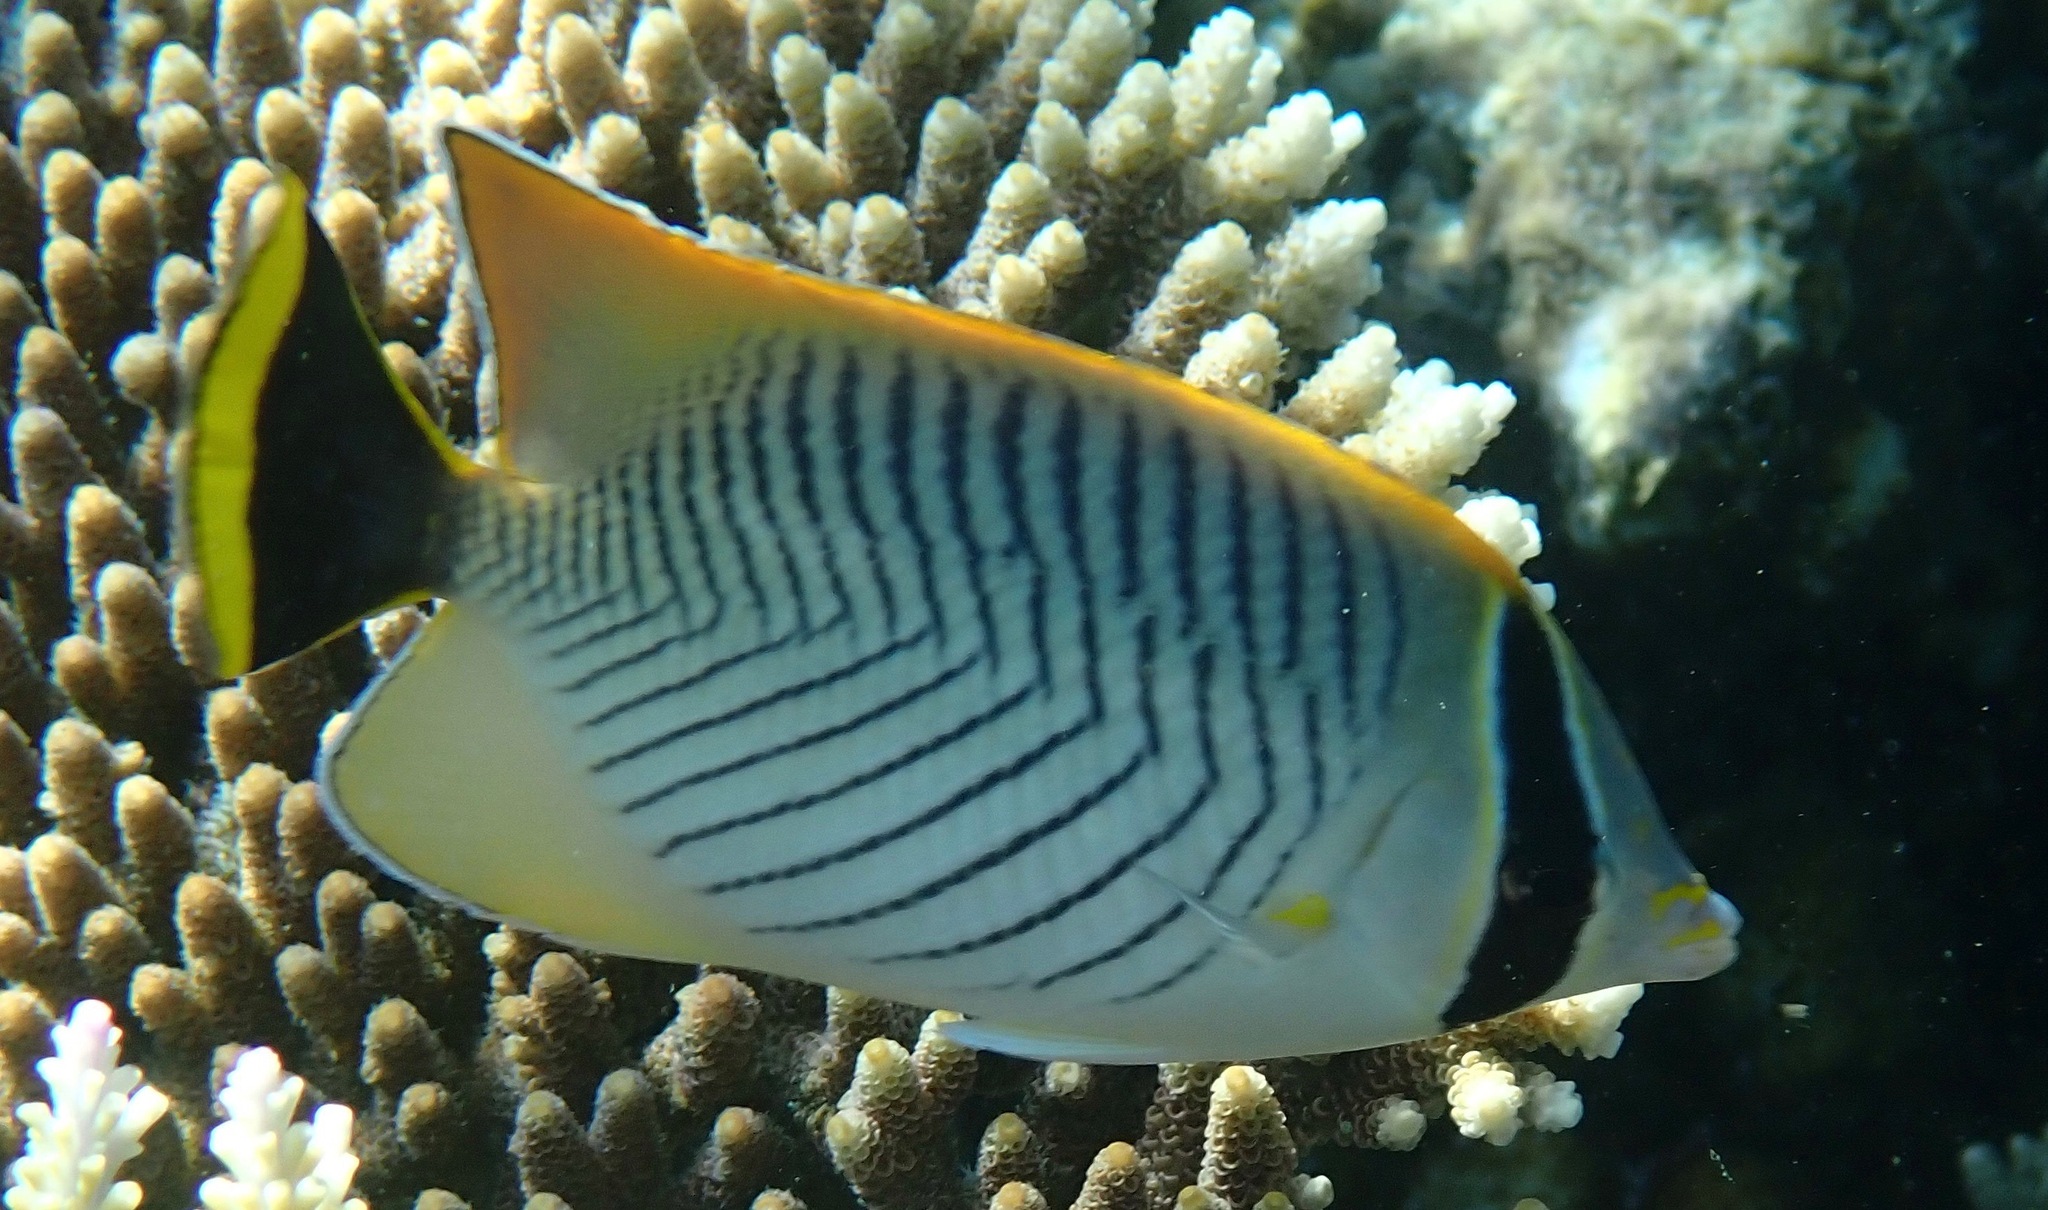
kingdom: Animalia
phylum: Chordata
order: Perciformes
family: Chaetodontidae
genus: Chaetodon
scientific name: Chaetodon trifascialis
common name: Chevroned butterflyfish
